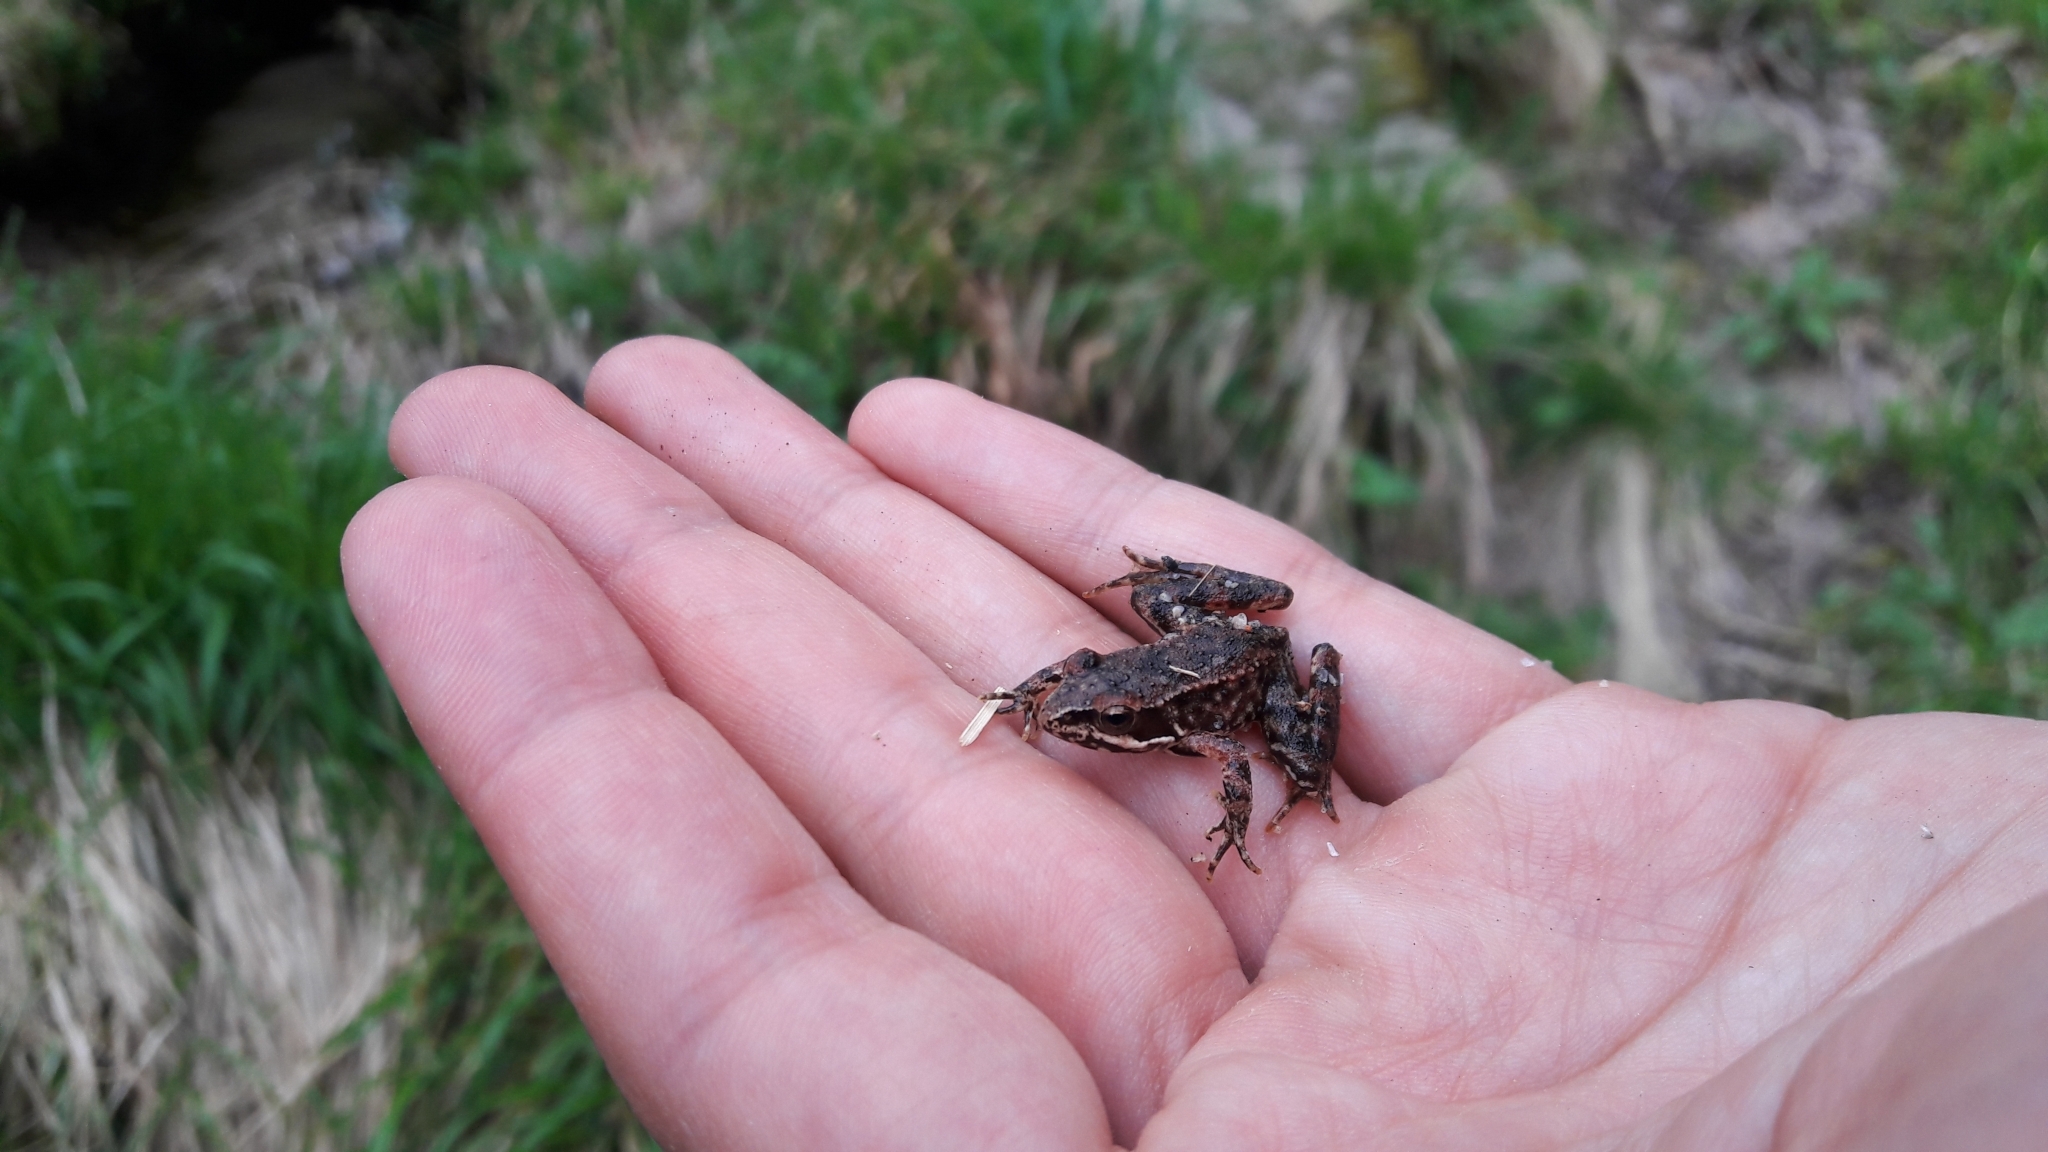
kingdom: Animalia
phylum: Chordata
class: Amphibia
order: Anura
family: Ranidae
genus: Rana
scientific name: Rana iberica
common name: Iberian frog
